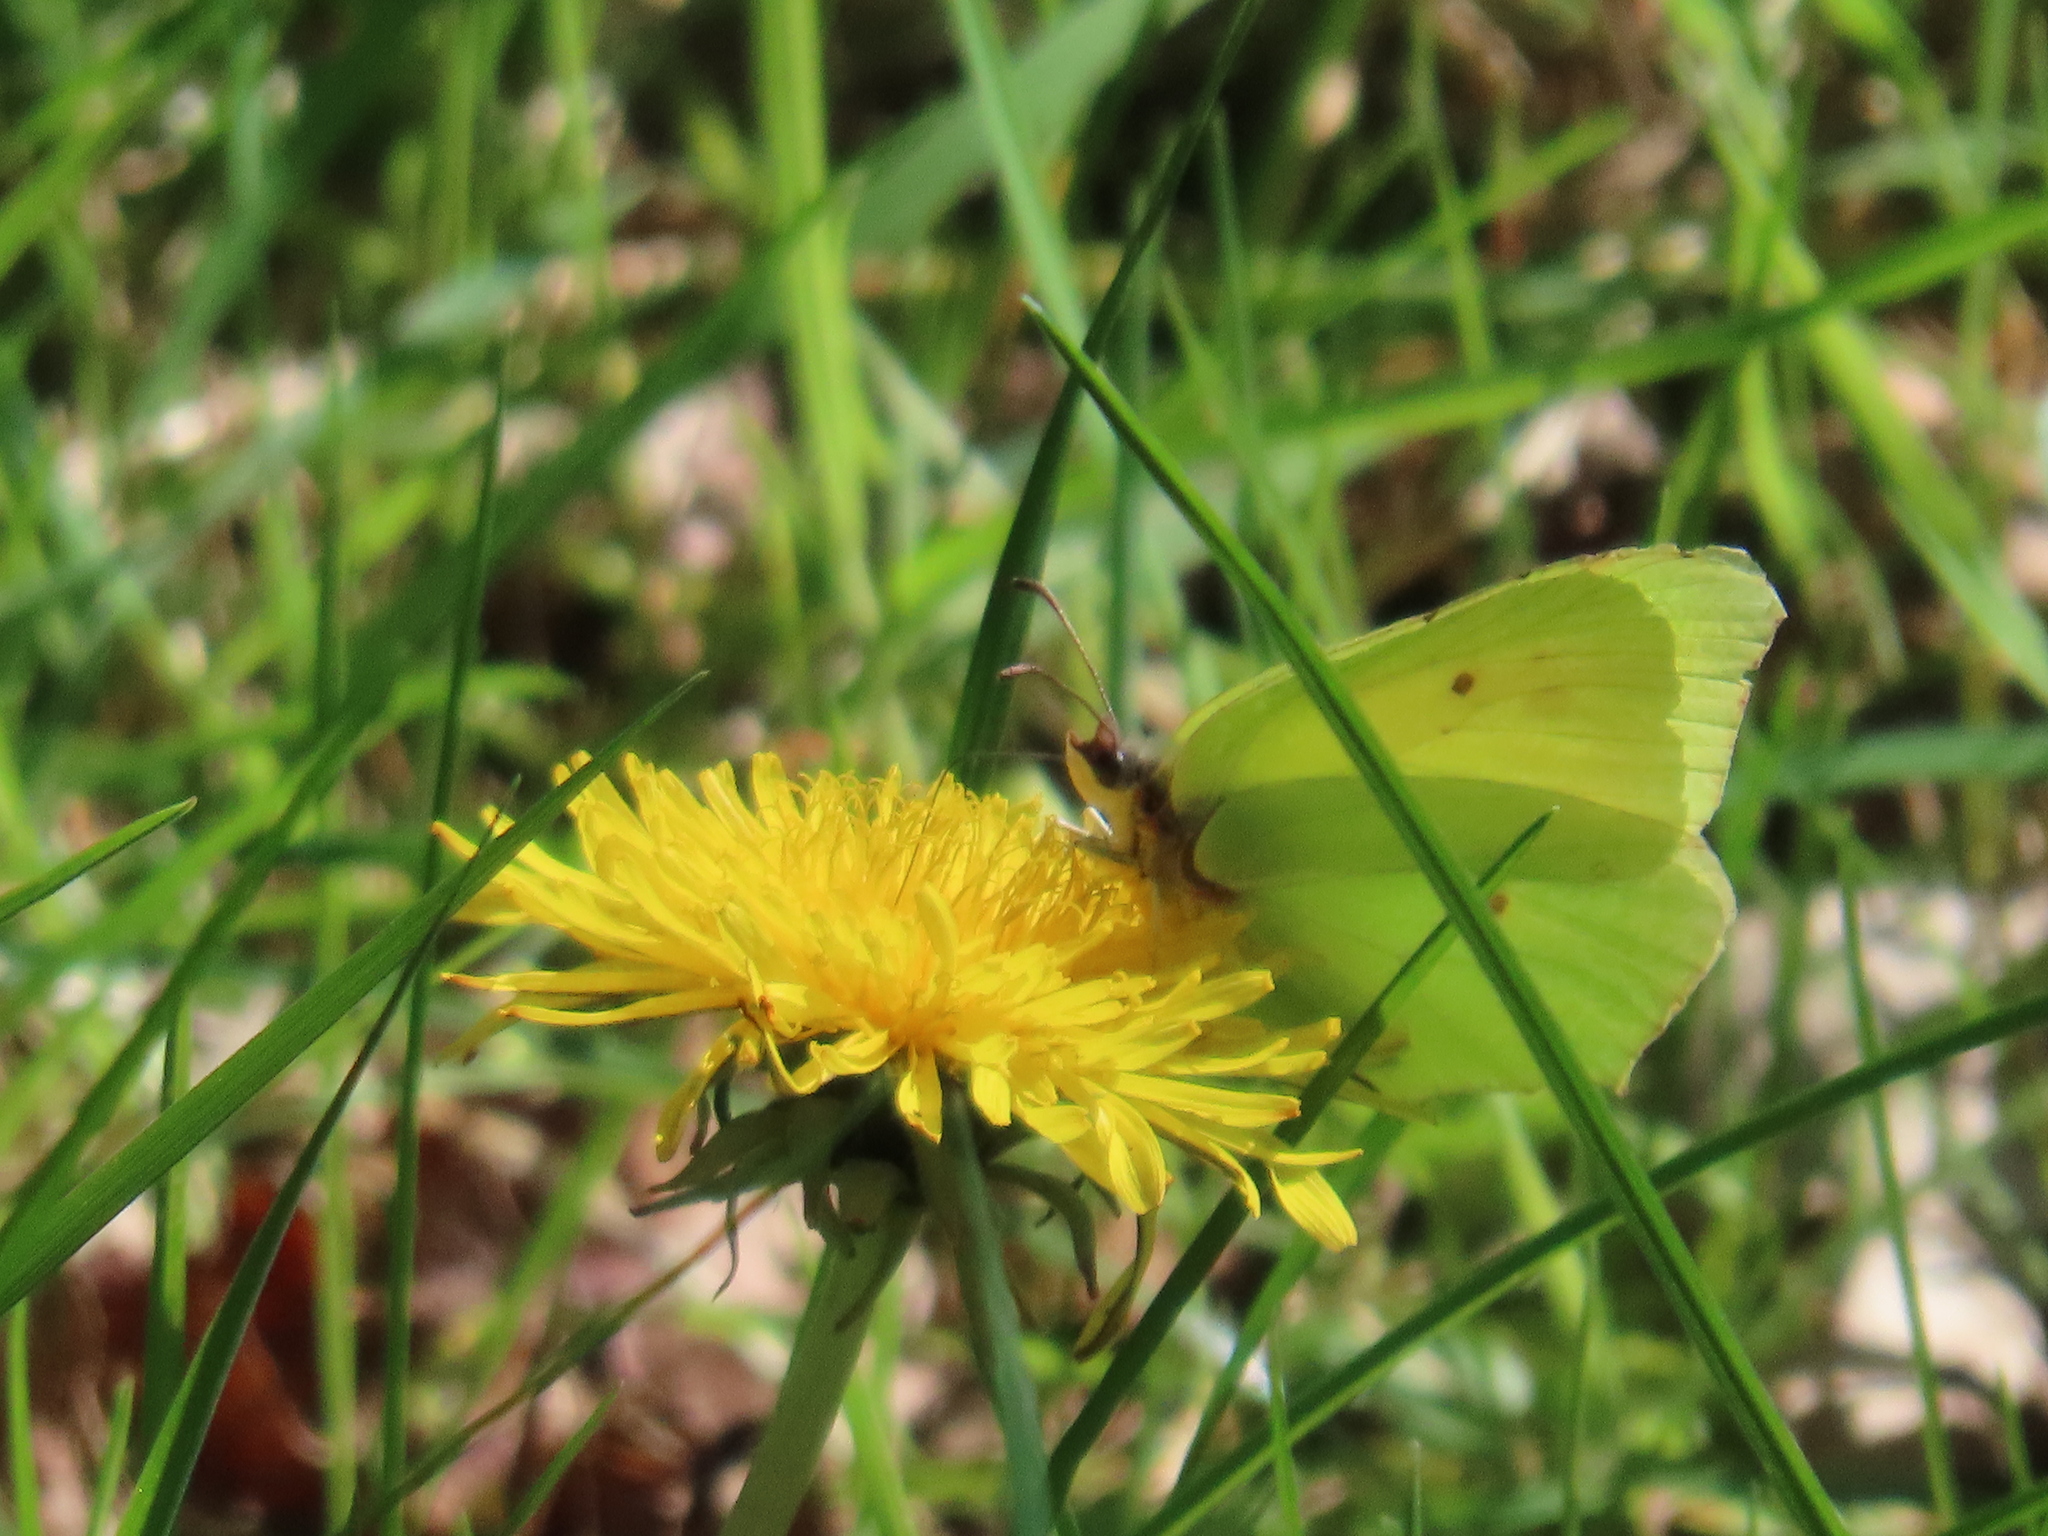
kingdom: Animalia
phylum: Arthropoda
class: Insecta
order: Lepidoptera
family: Pieridae
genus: Gonepteryx
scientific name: Gonepteryx rhamni
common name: Brimstone
